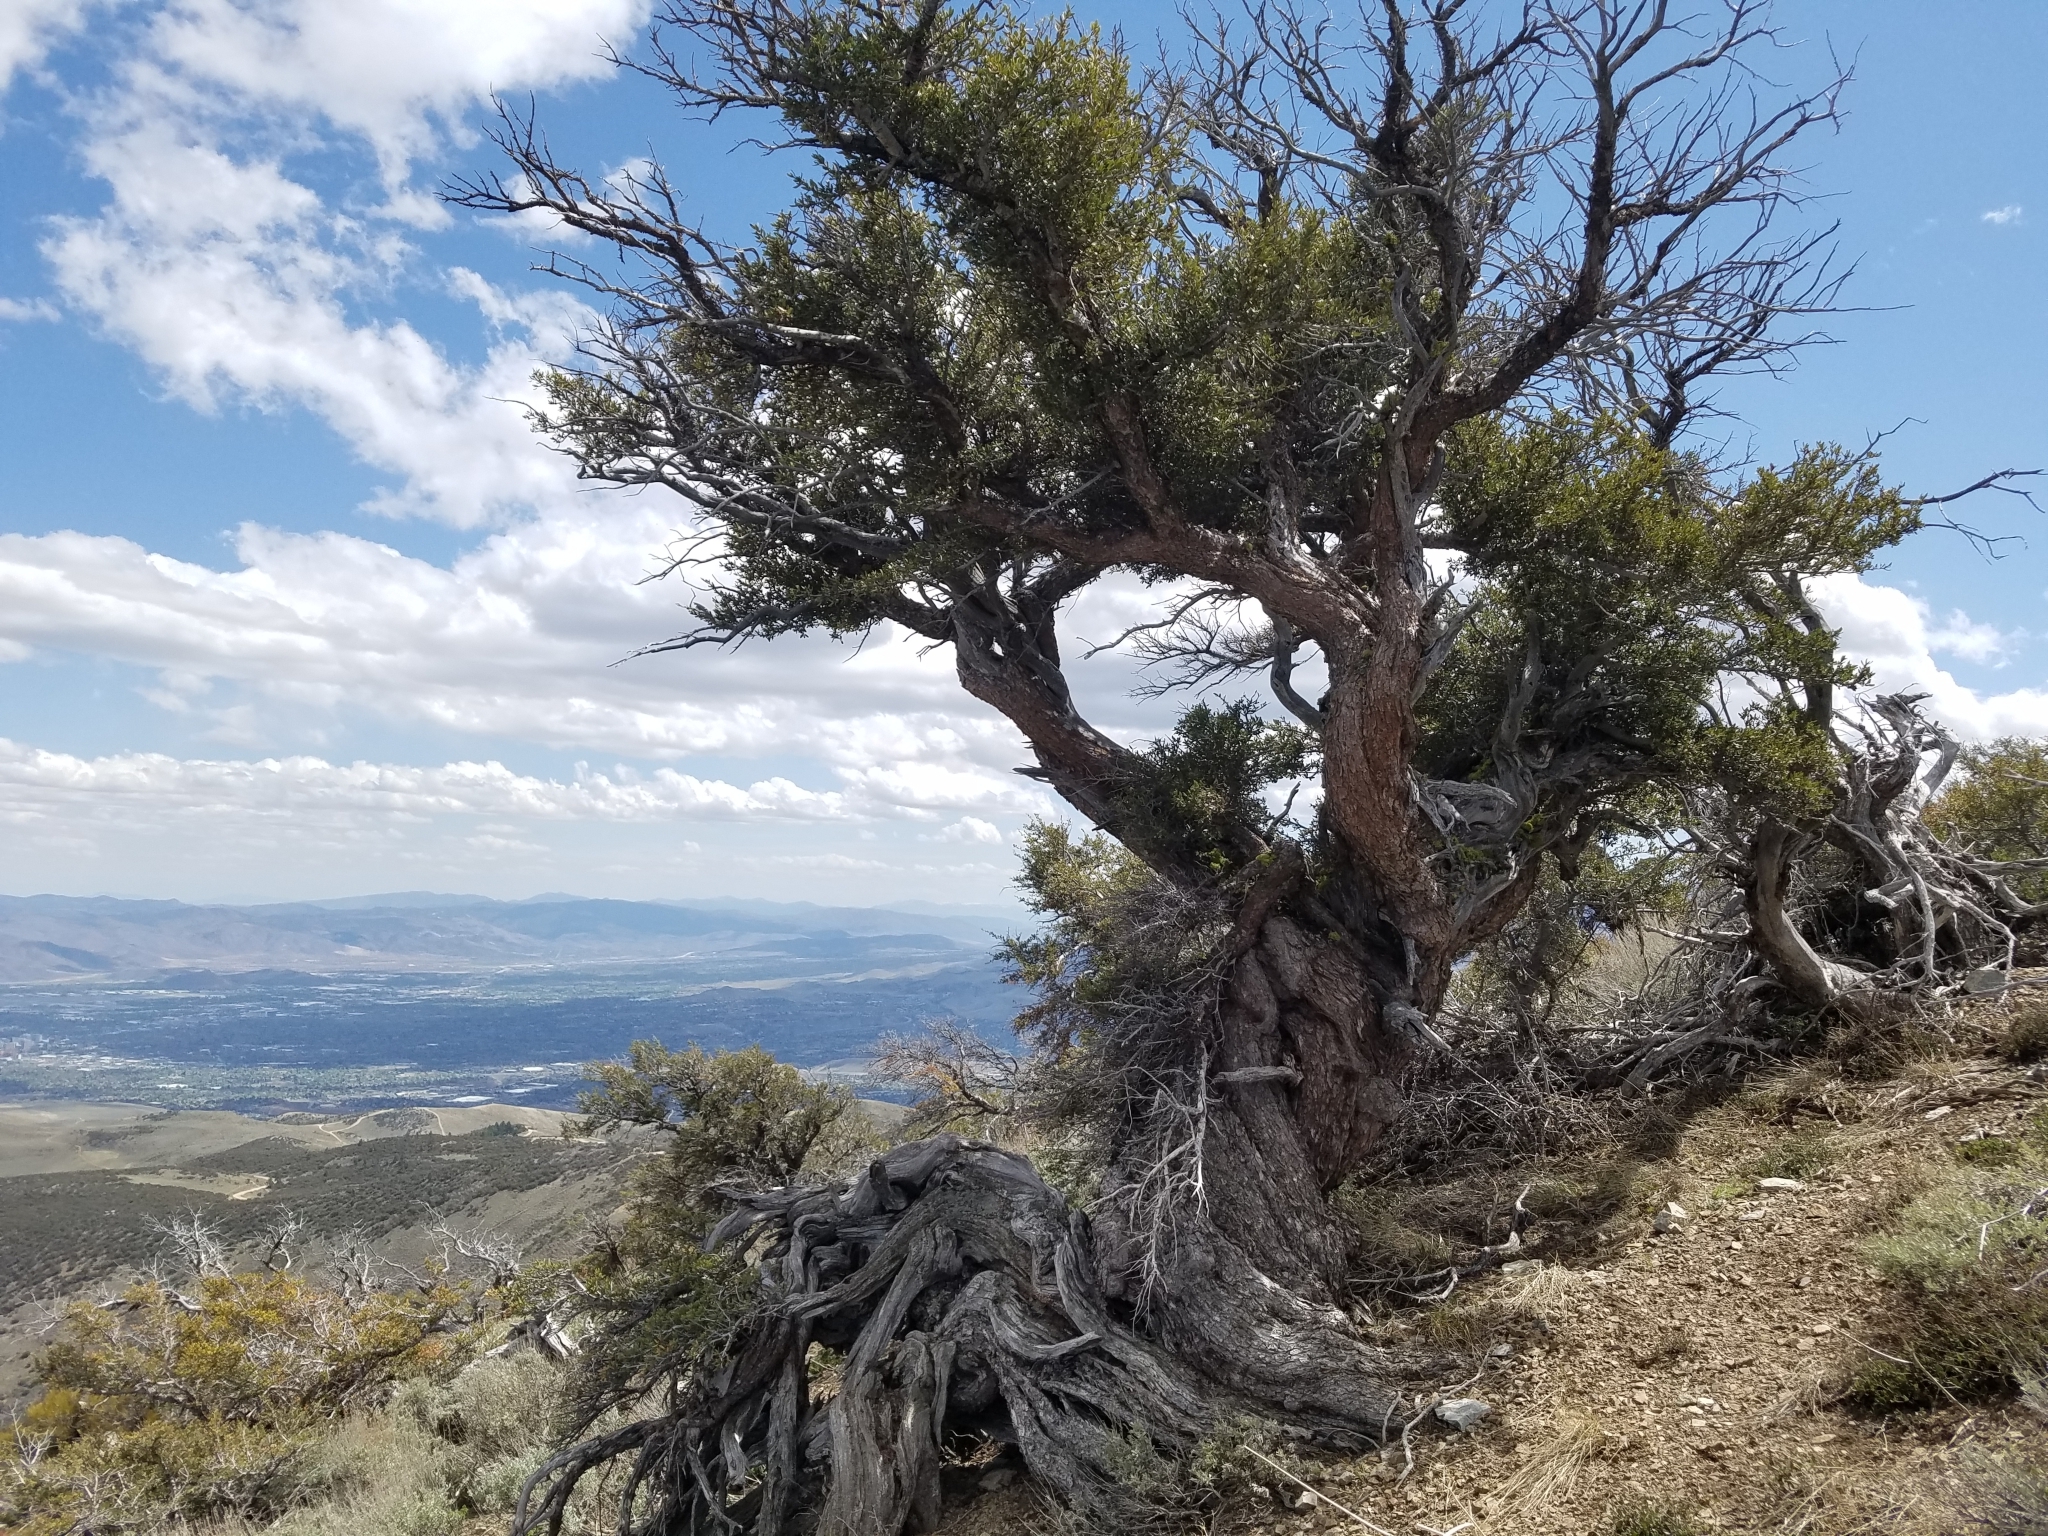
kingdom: Plantae
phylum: Tracheophyta
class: Magnoliopsida
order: Rosales
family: Rosaceae
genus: Cercocarpus
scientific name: Cercocarpus ledifolius
